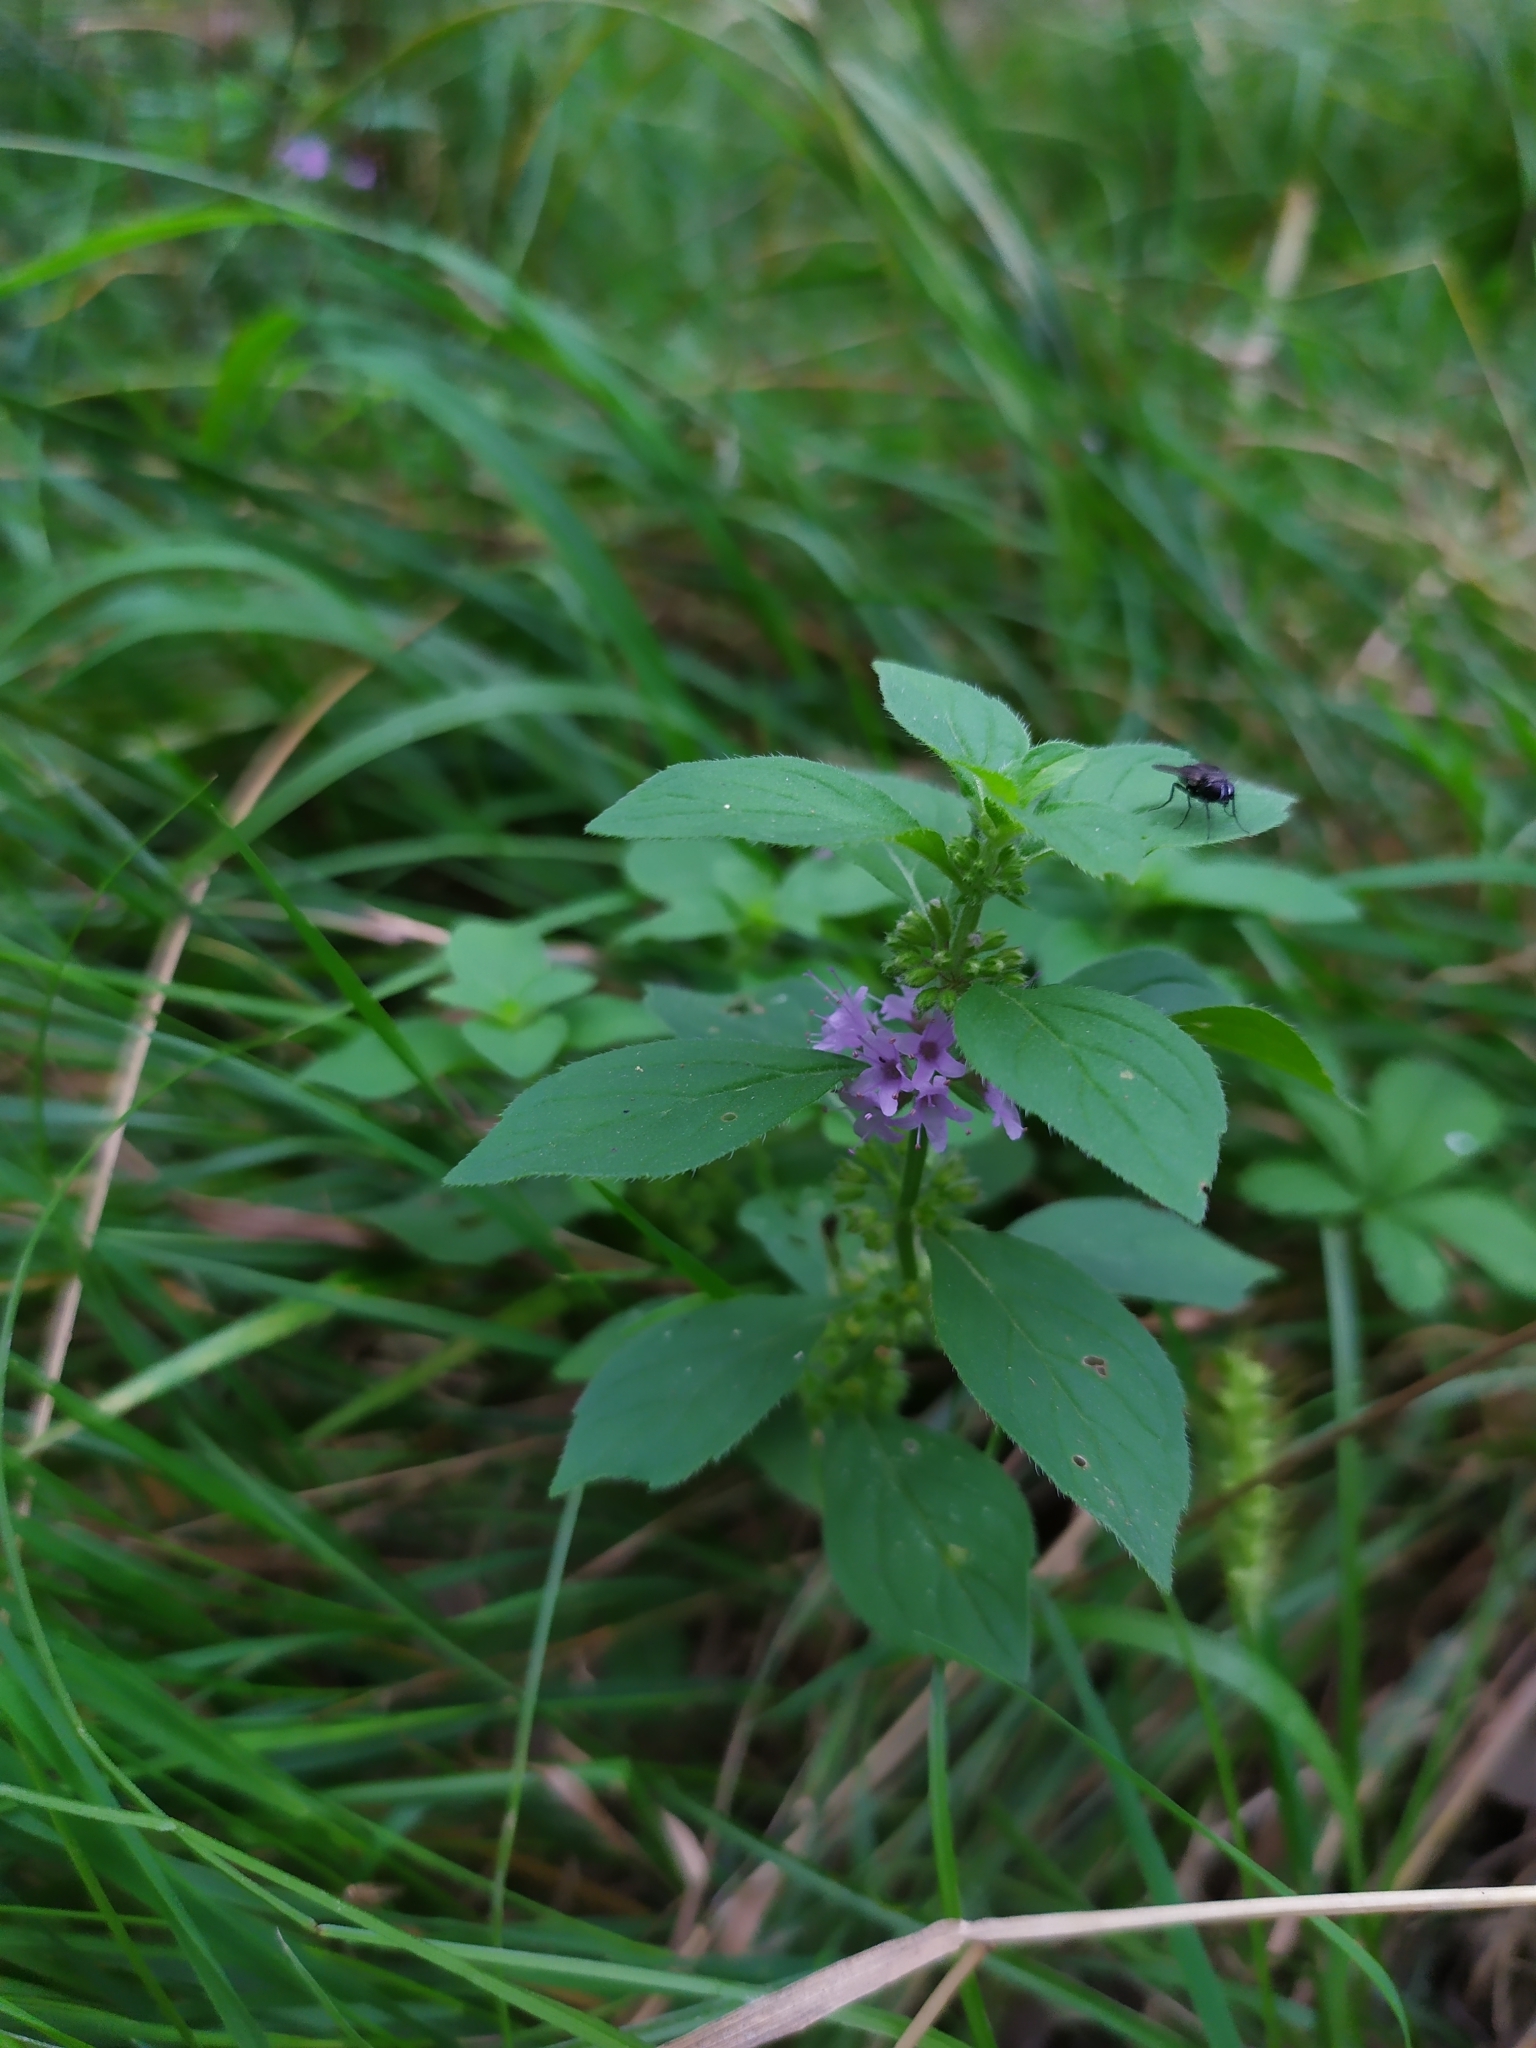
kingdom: Plantae
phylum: Tracheophyta
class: Magnoliopsida
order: Lamiales
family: Lamiaceae
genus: Mentha
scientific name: Mentha arvensis
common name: Corn mint
